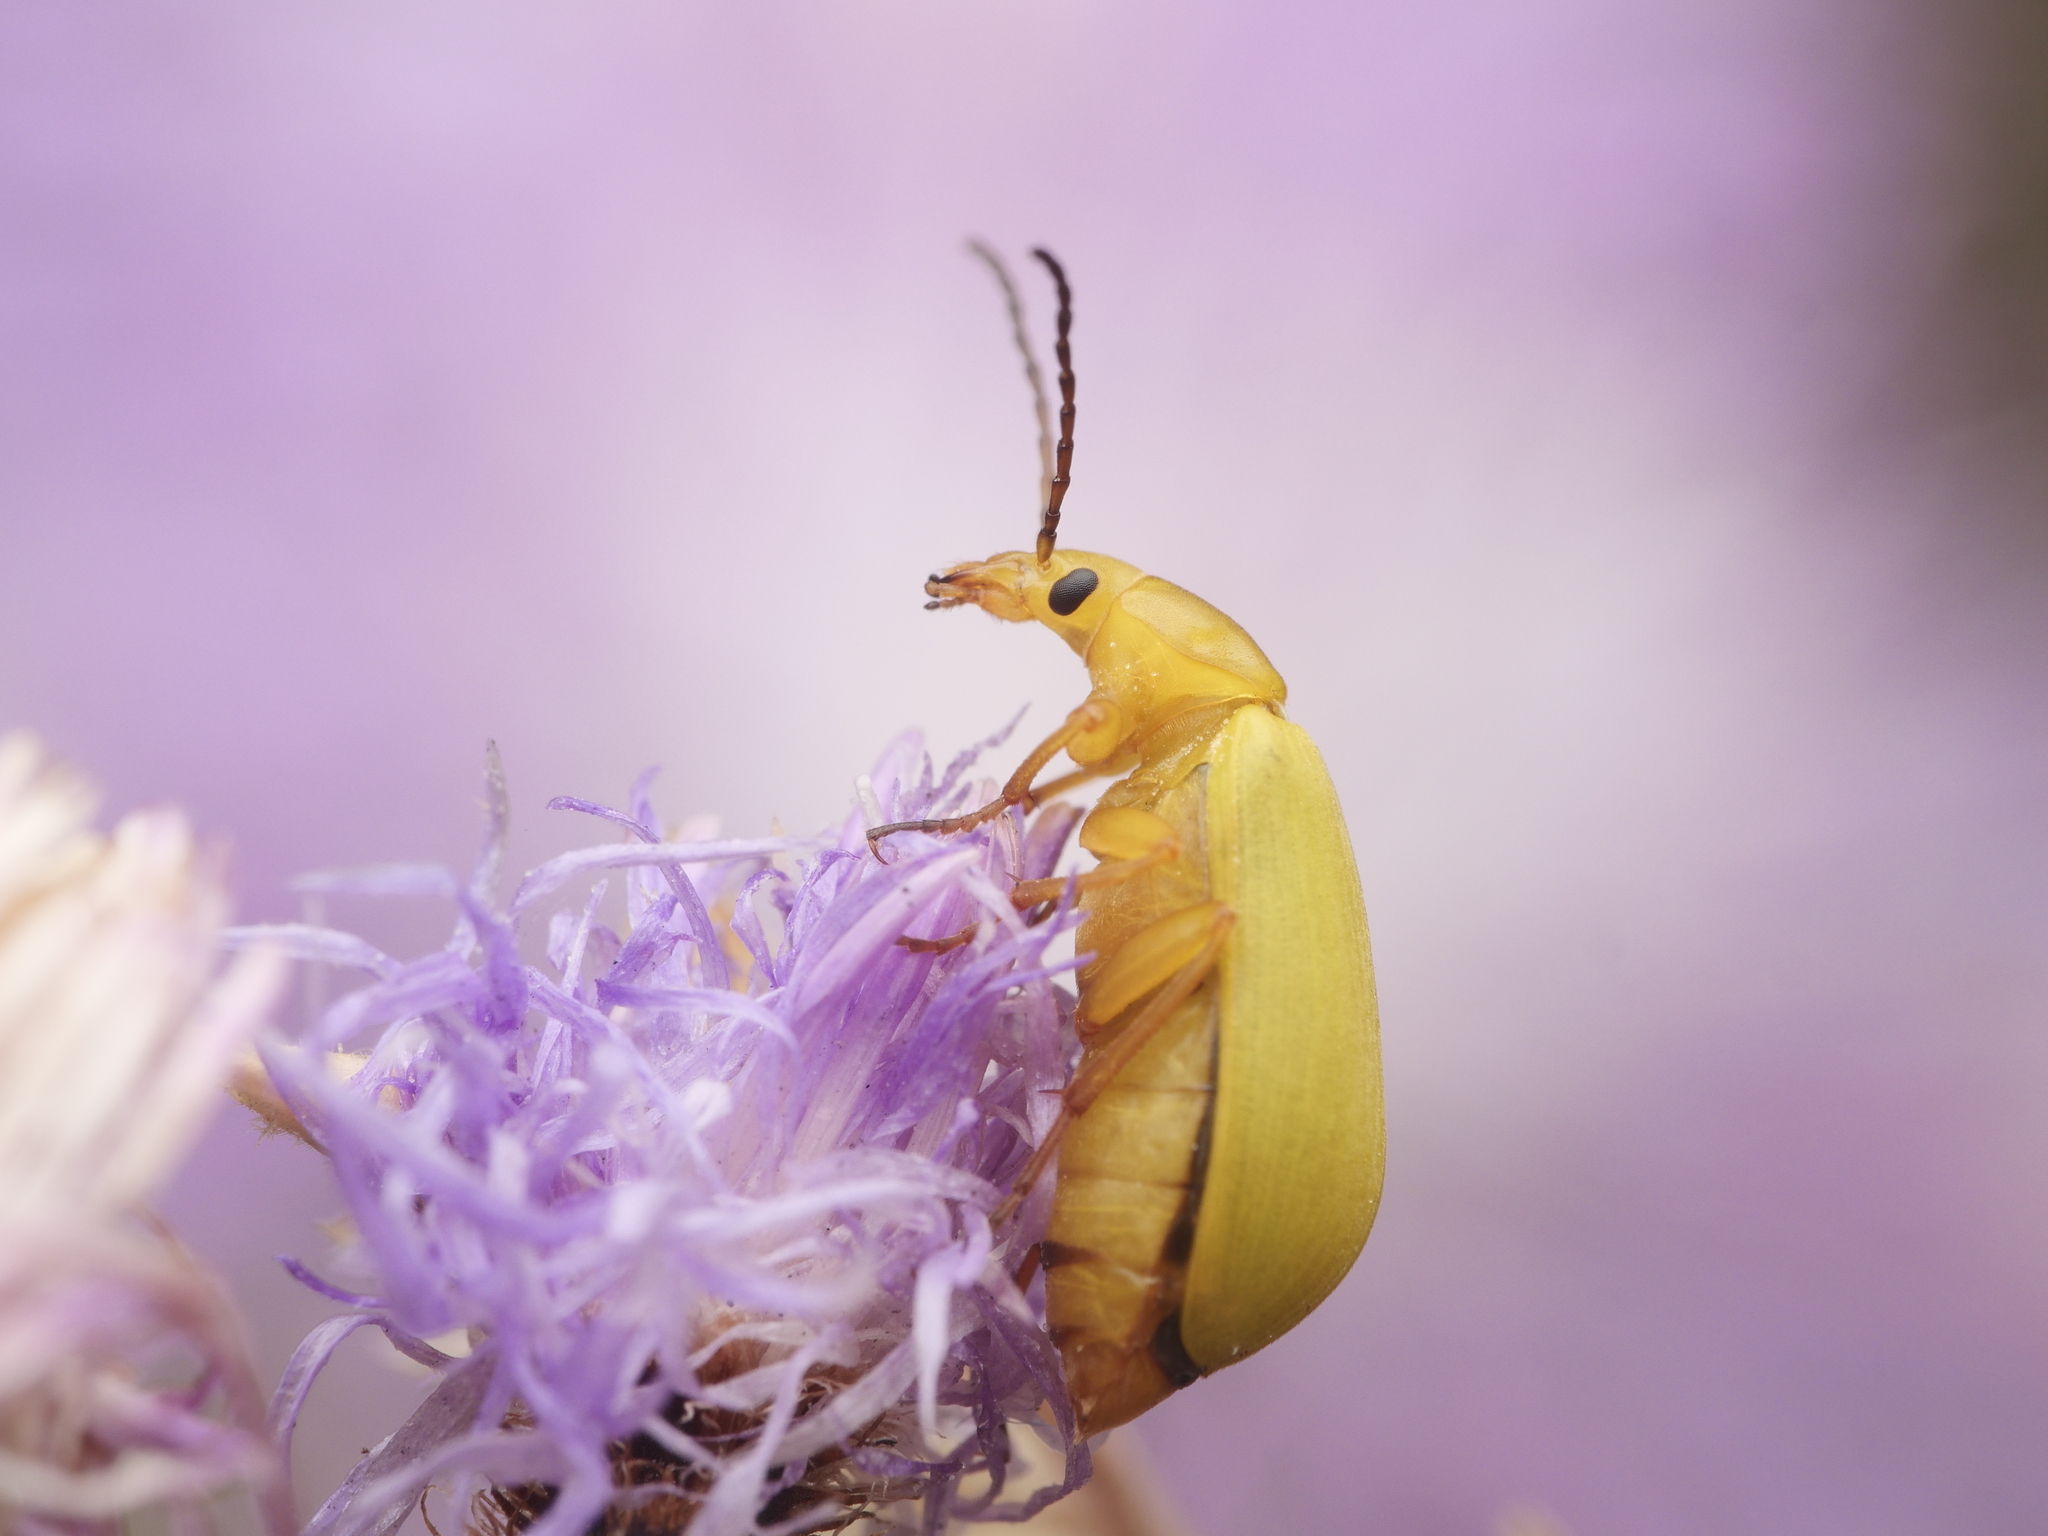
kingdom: Animalia
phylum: Arthropoda
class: Insecta
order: Coleoptera
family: Tenebrionidae
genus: Cteniopus
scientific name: Cteniopus sulphureus
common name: Sulphur beetle
